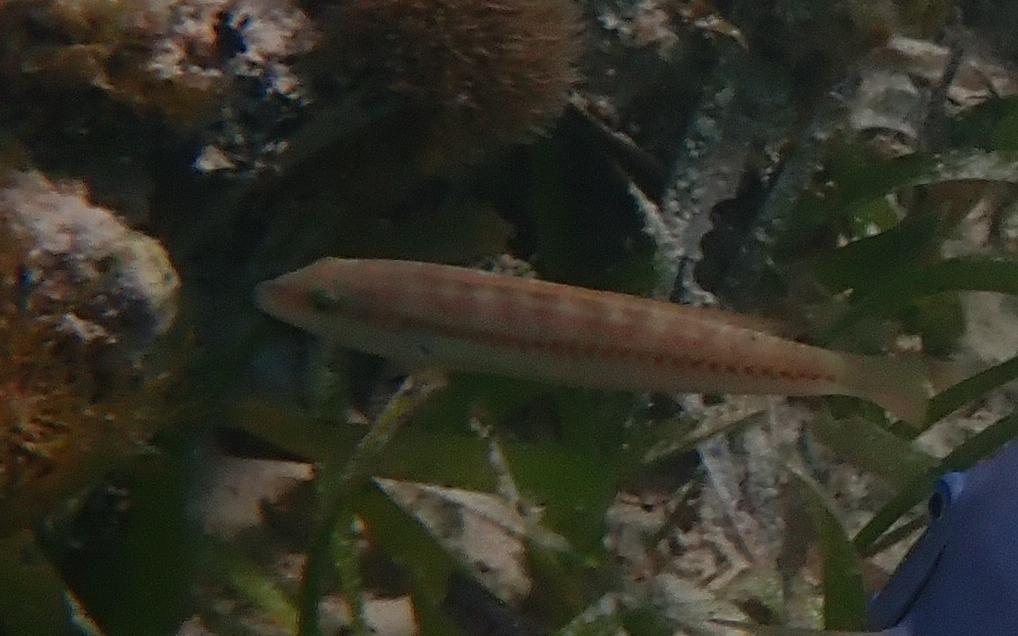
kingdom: Animalia
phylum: Chordata
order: Perciformes
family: Labridae
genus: Halichoeres
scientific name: Halichoeres bivittatus
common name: Slippery dick
